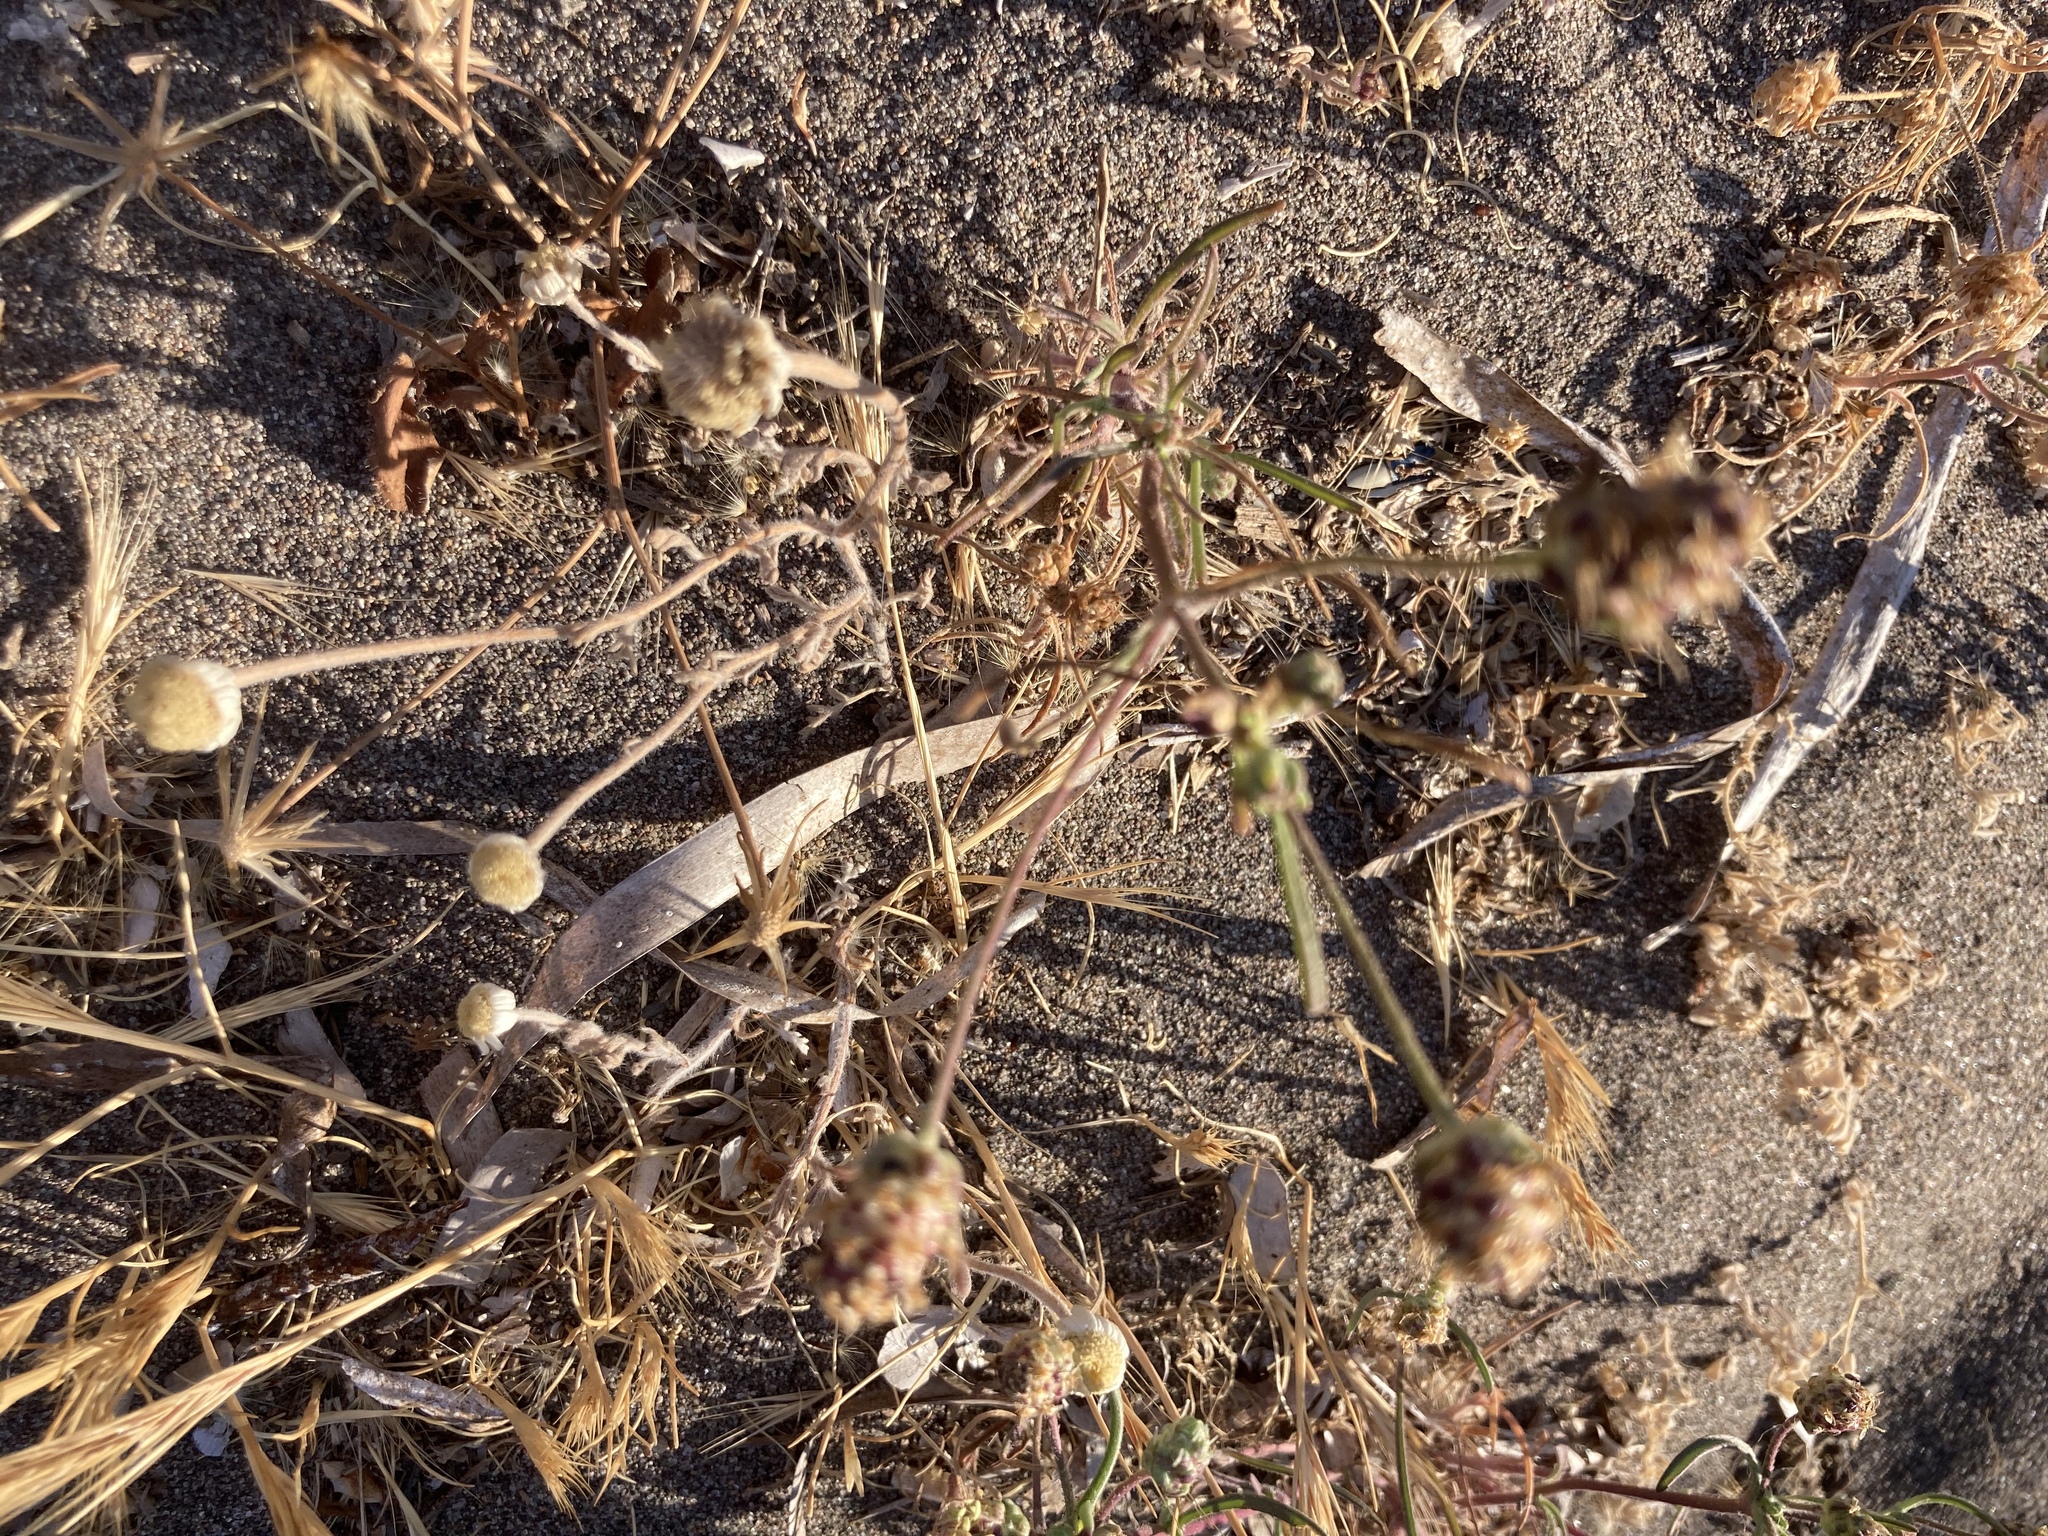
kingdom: Plantae
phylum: Tracheophyta
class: Magnoliopsida
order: Lamiales
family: Plantaginaceae
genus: Plantago
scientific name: Plantago arenaria
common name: Branched plantain
